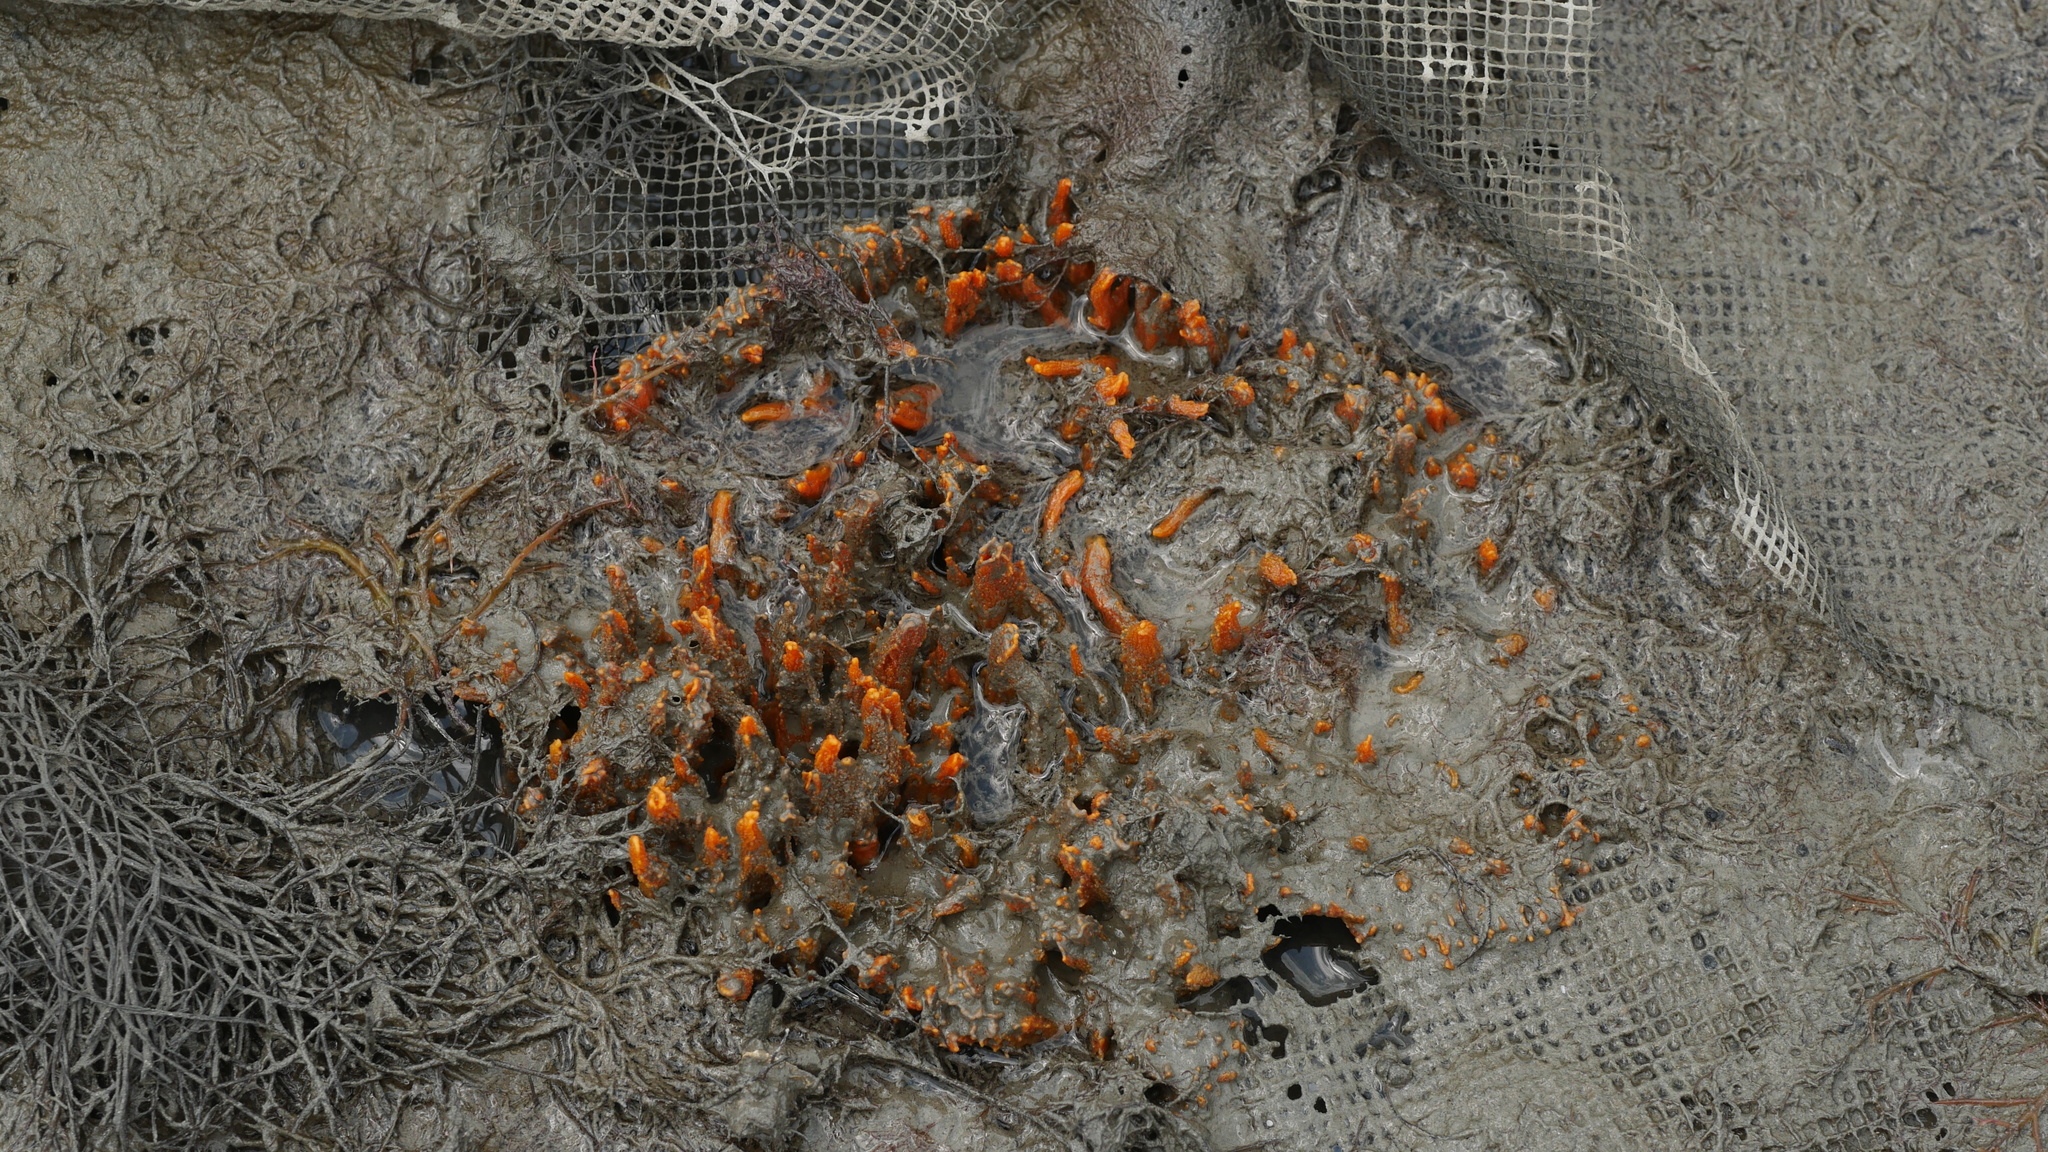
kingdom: Animalia
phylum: Porifera
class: Demospongiae
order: Suberitida
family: Halichondriidae
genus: Hymeniacidon
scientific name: Hymeniacidon heliophila
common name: Diurnal horny sponge
